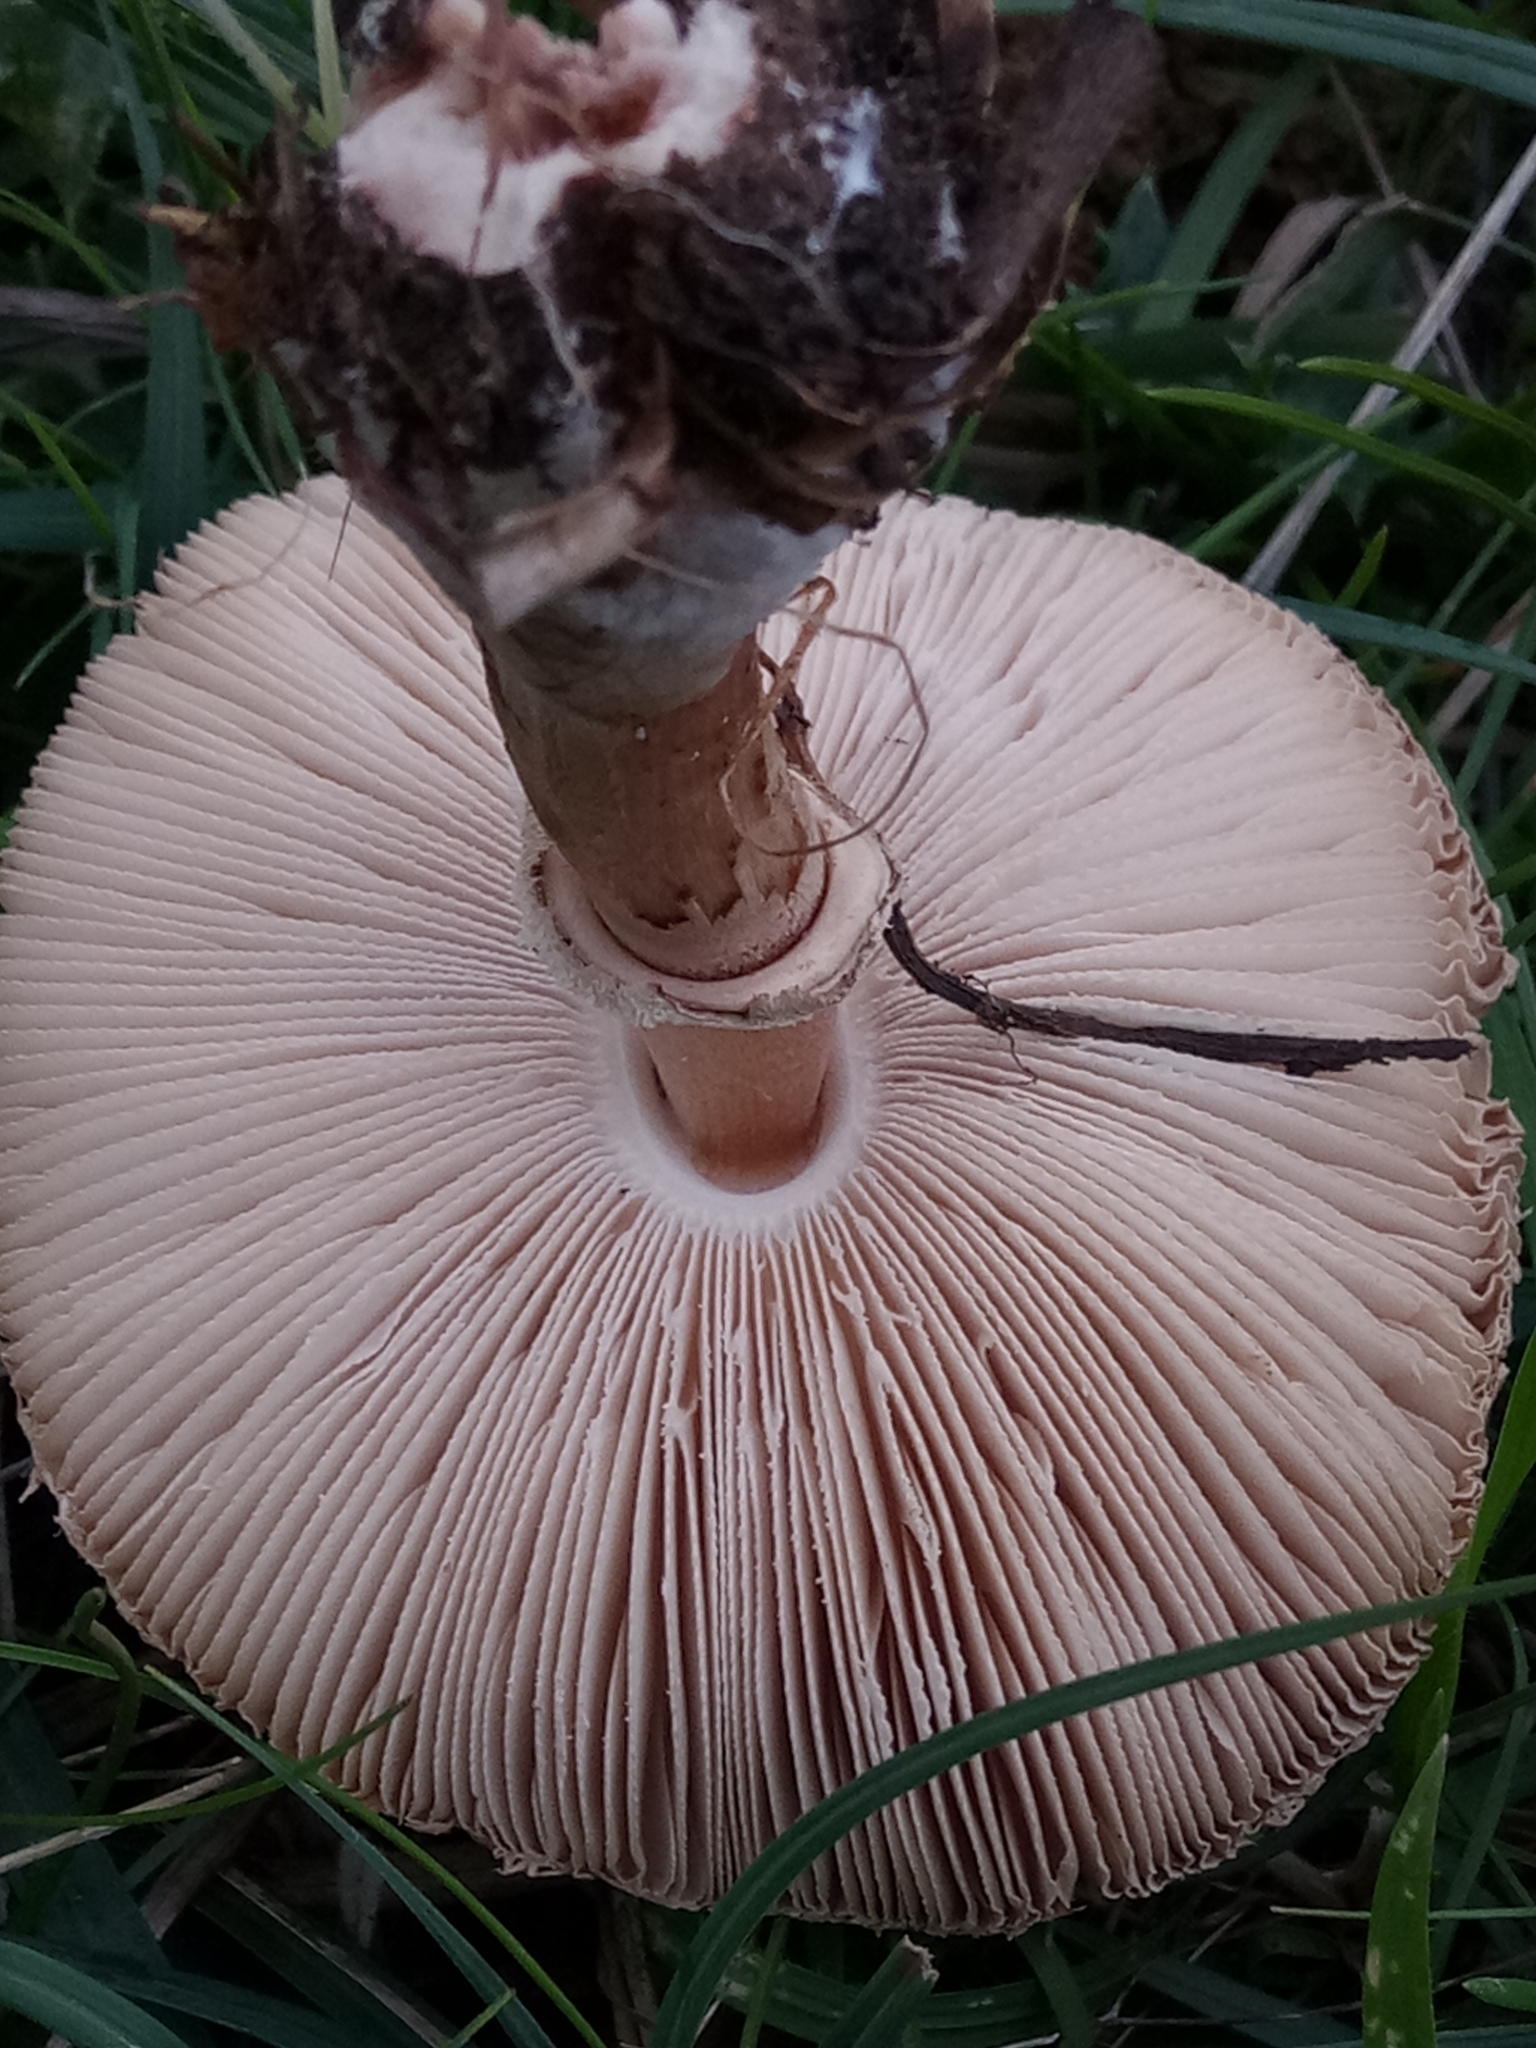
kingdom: Fungi
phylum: Basidiomycota
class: Agaricomycetes
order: Agaricales
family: Agaricaceae
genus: Macrolepiota
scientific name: Macrolepiota procera
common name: Parasol
